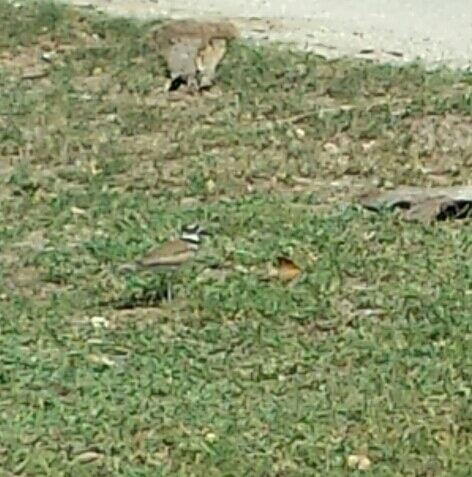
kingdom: Animalia
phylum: Chordata
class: Aves
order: Charadriiformes
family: Charadriidae
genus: Charadrius
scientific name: Charadrius vociferus
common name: Killdeer
